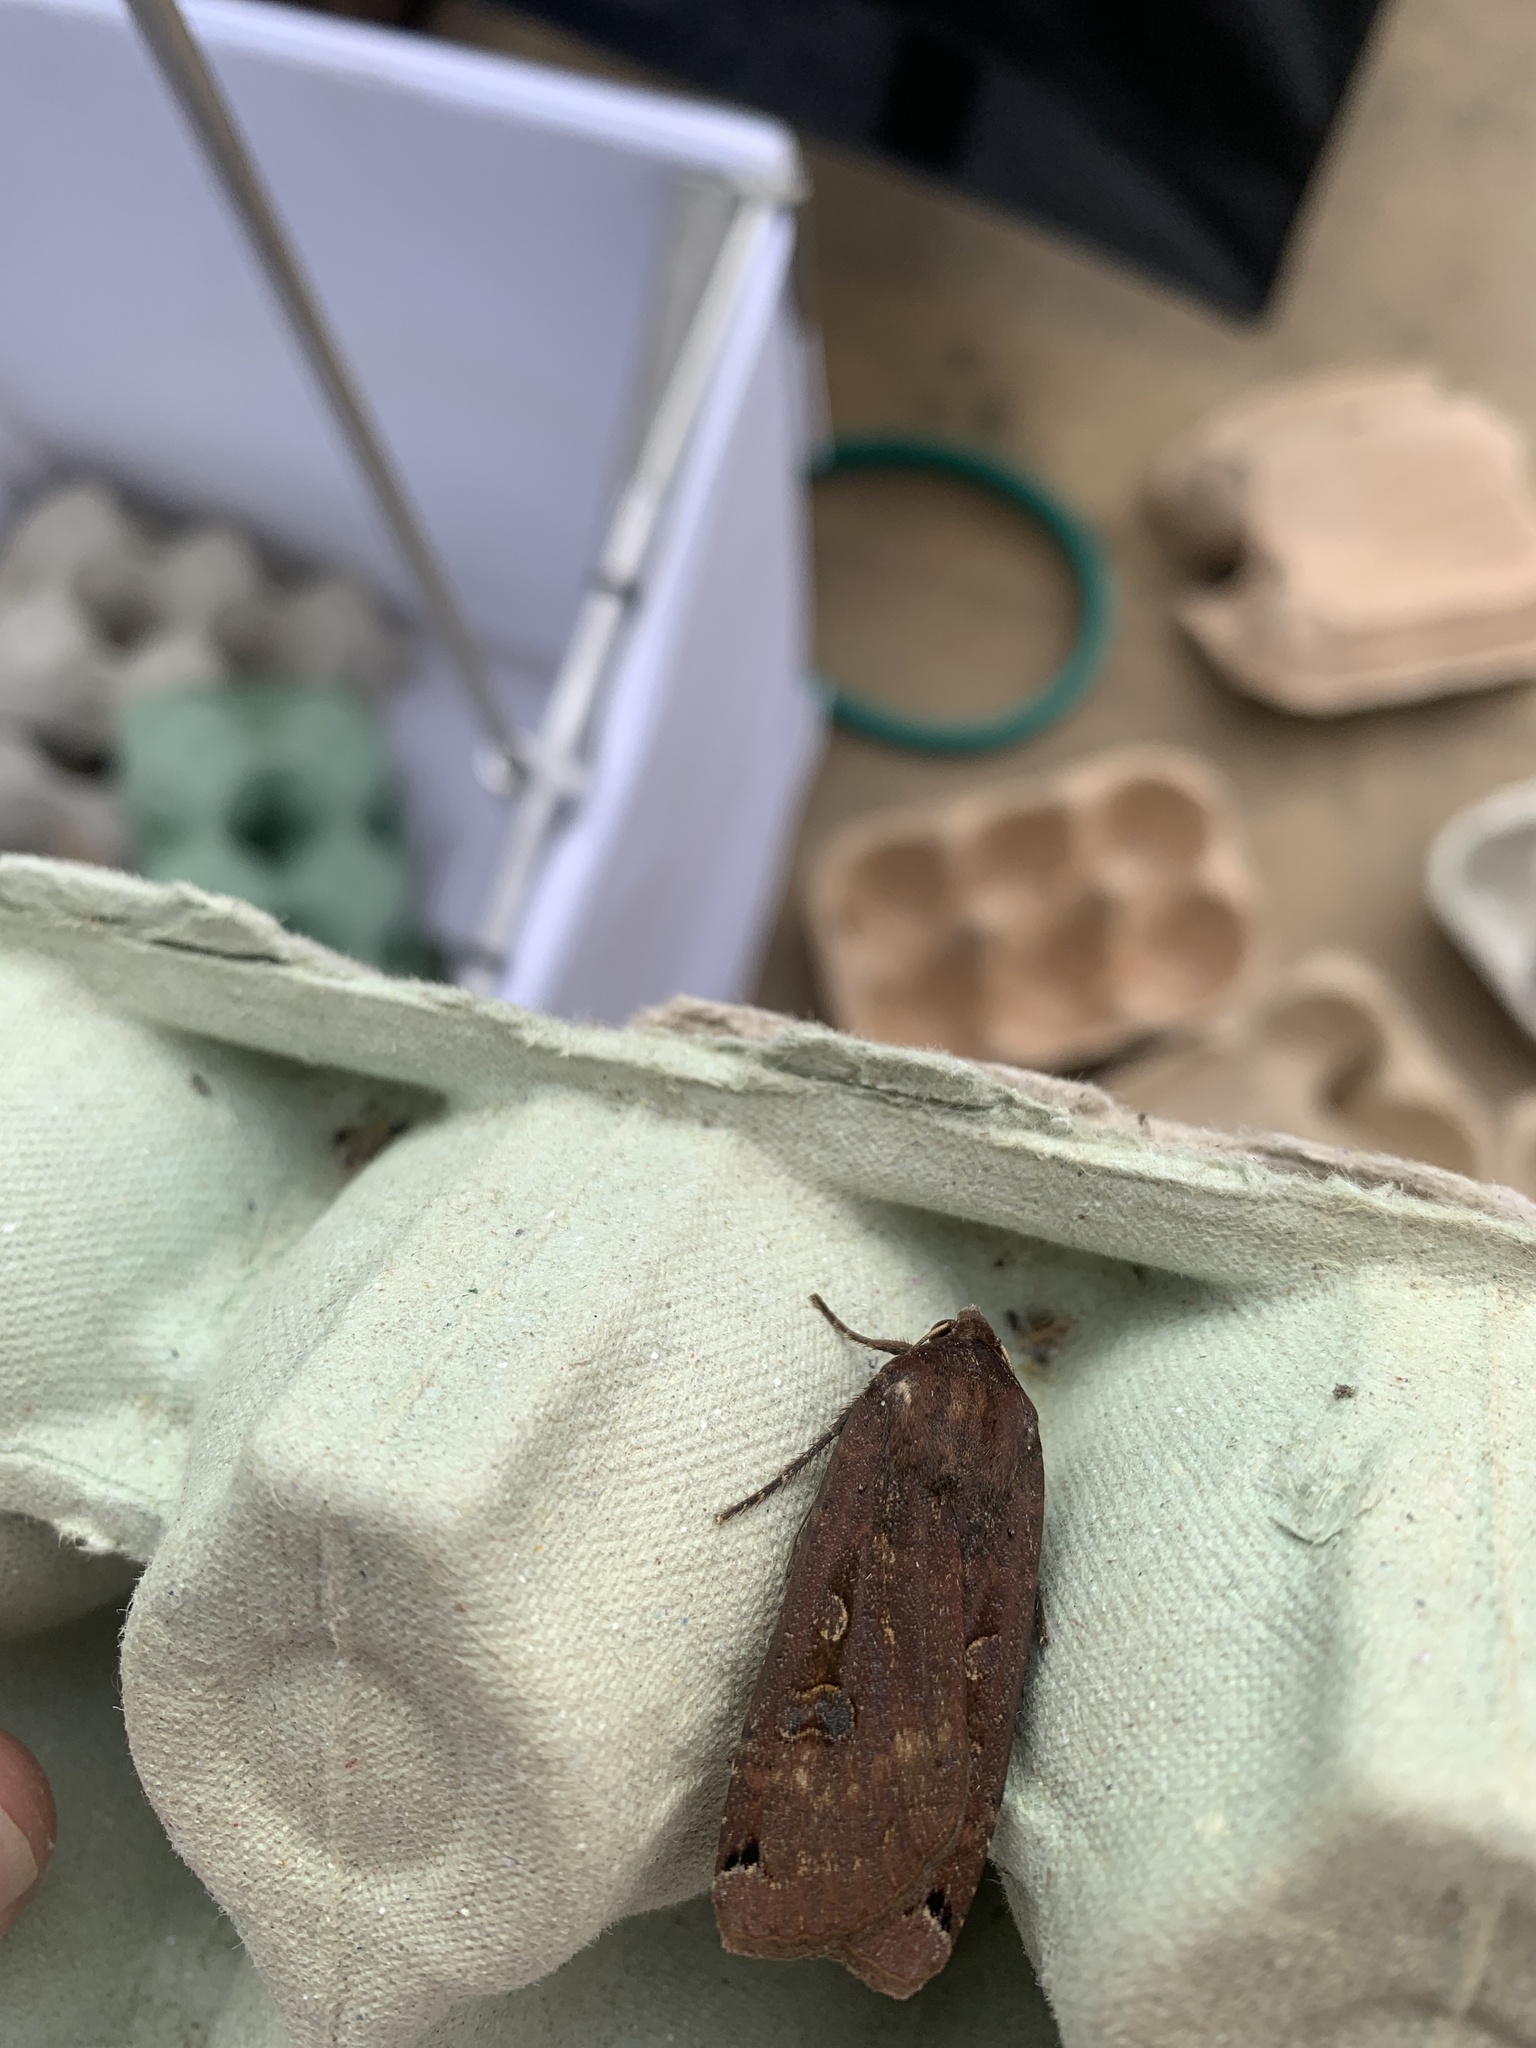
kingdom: Animalia
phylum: Arthropoda
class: Insecta
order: Lepidoptera
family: Noctuidae
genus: Noctua
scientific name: Noctua pronuba
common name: Large yellow underwing
